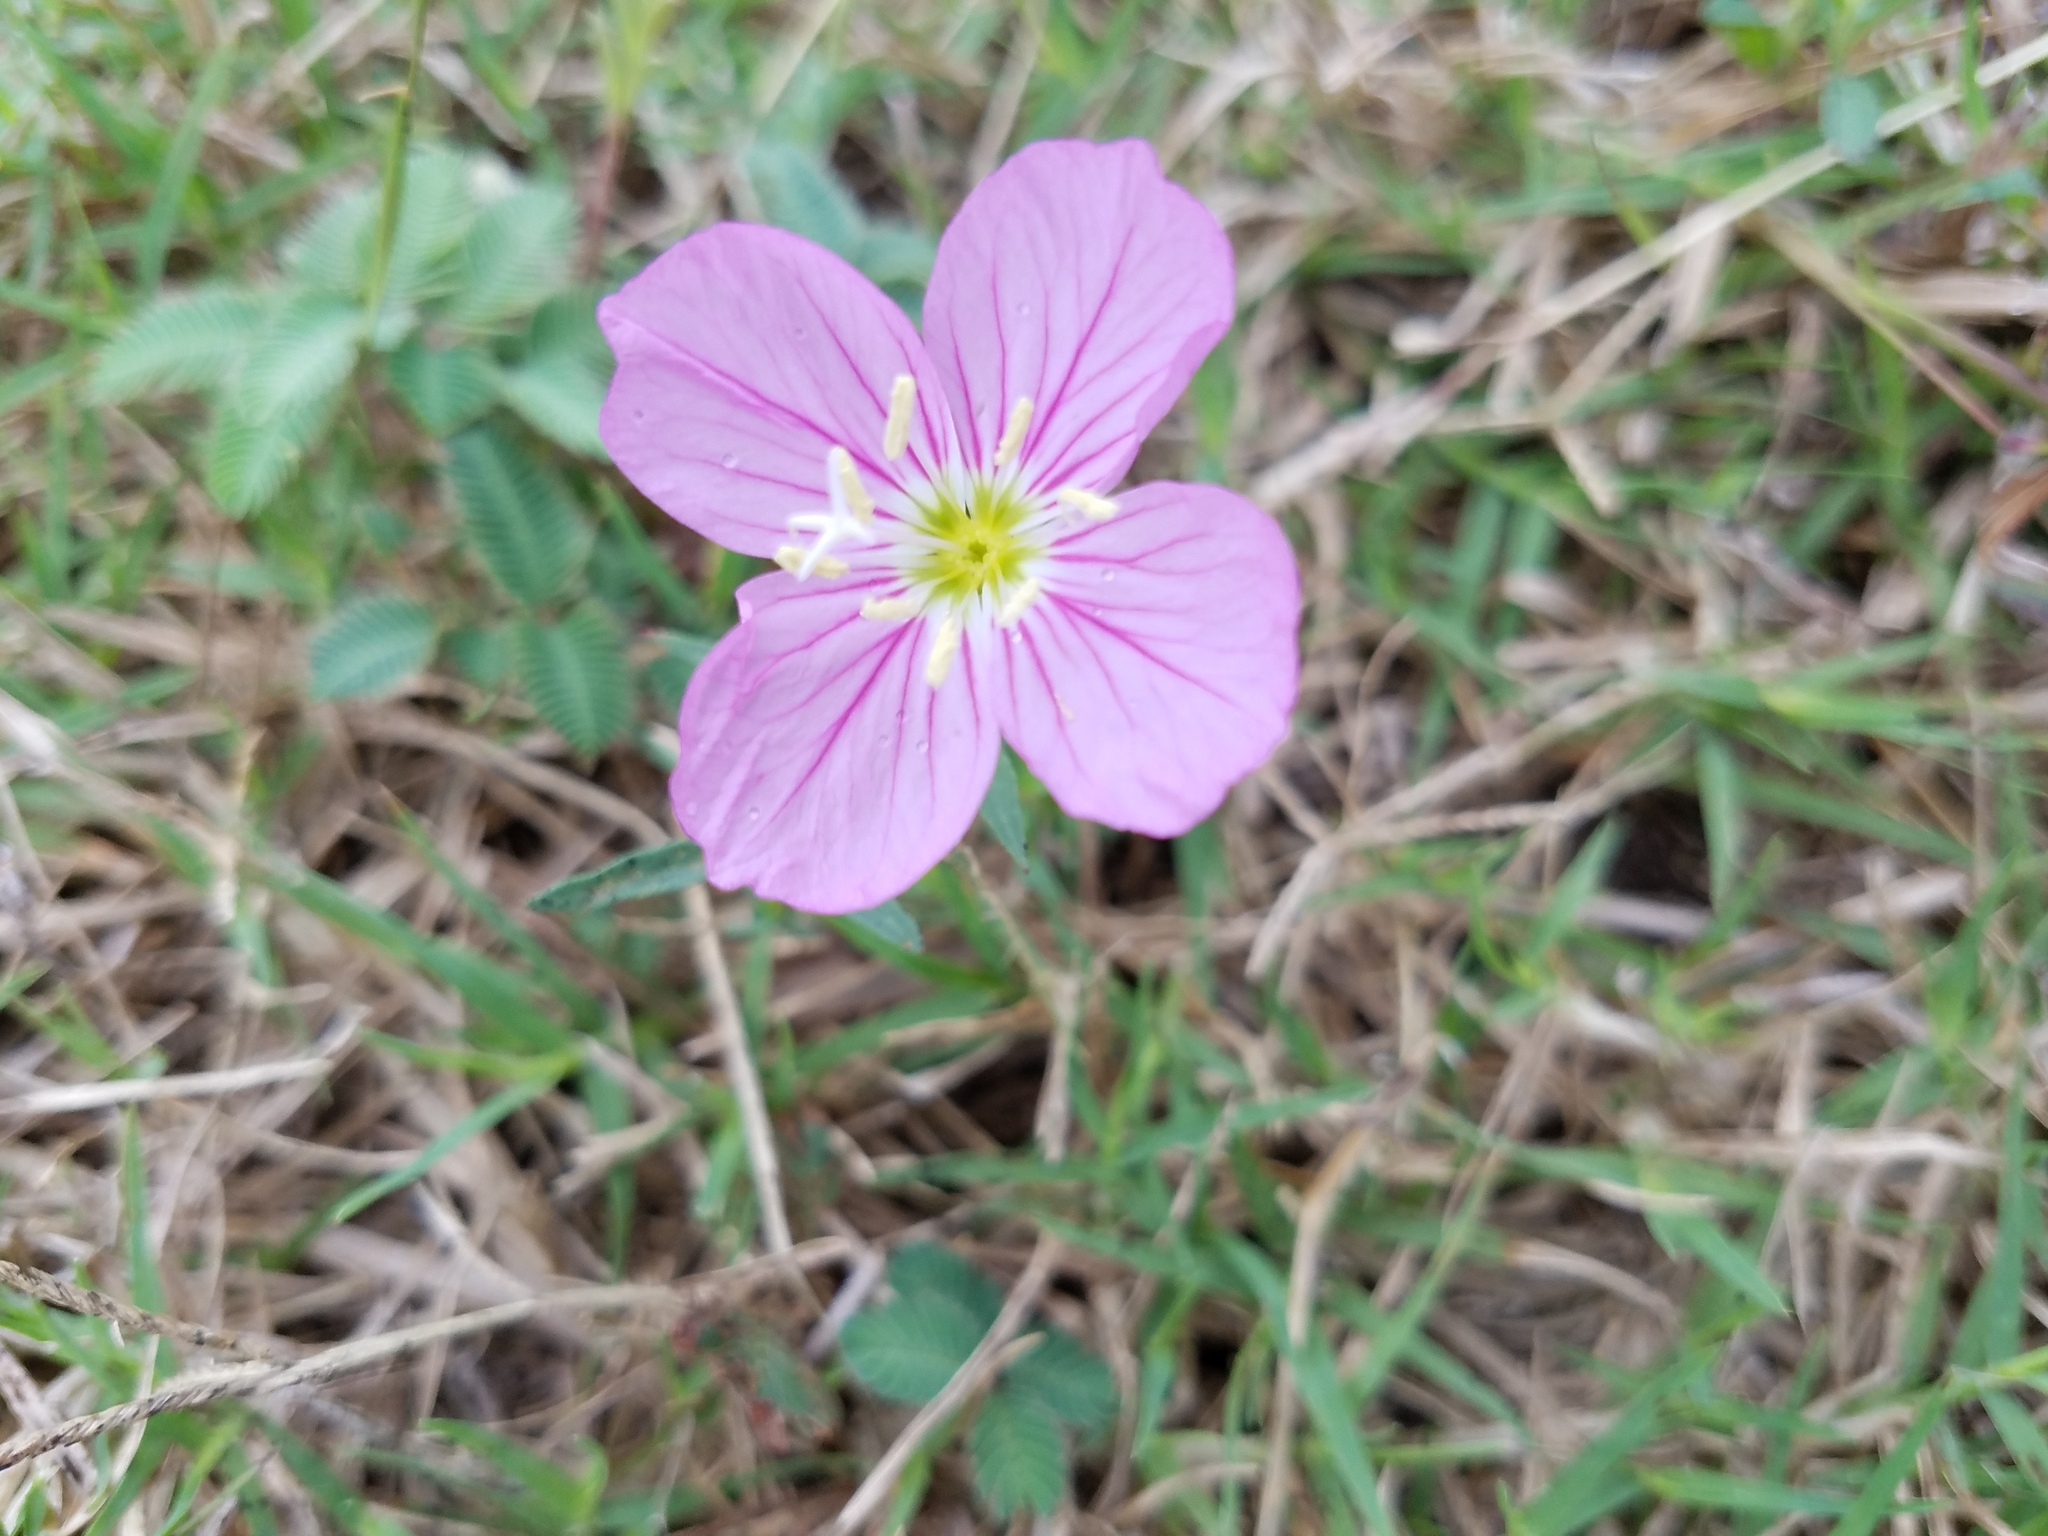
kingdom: Plantae
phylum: Tracheophyta
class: Magnoliopsida
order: Myrtales
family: Onagraceae
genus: Oenothera
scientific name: Oenothera speciosa
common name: White evening-primrose
